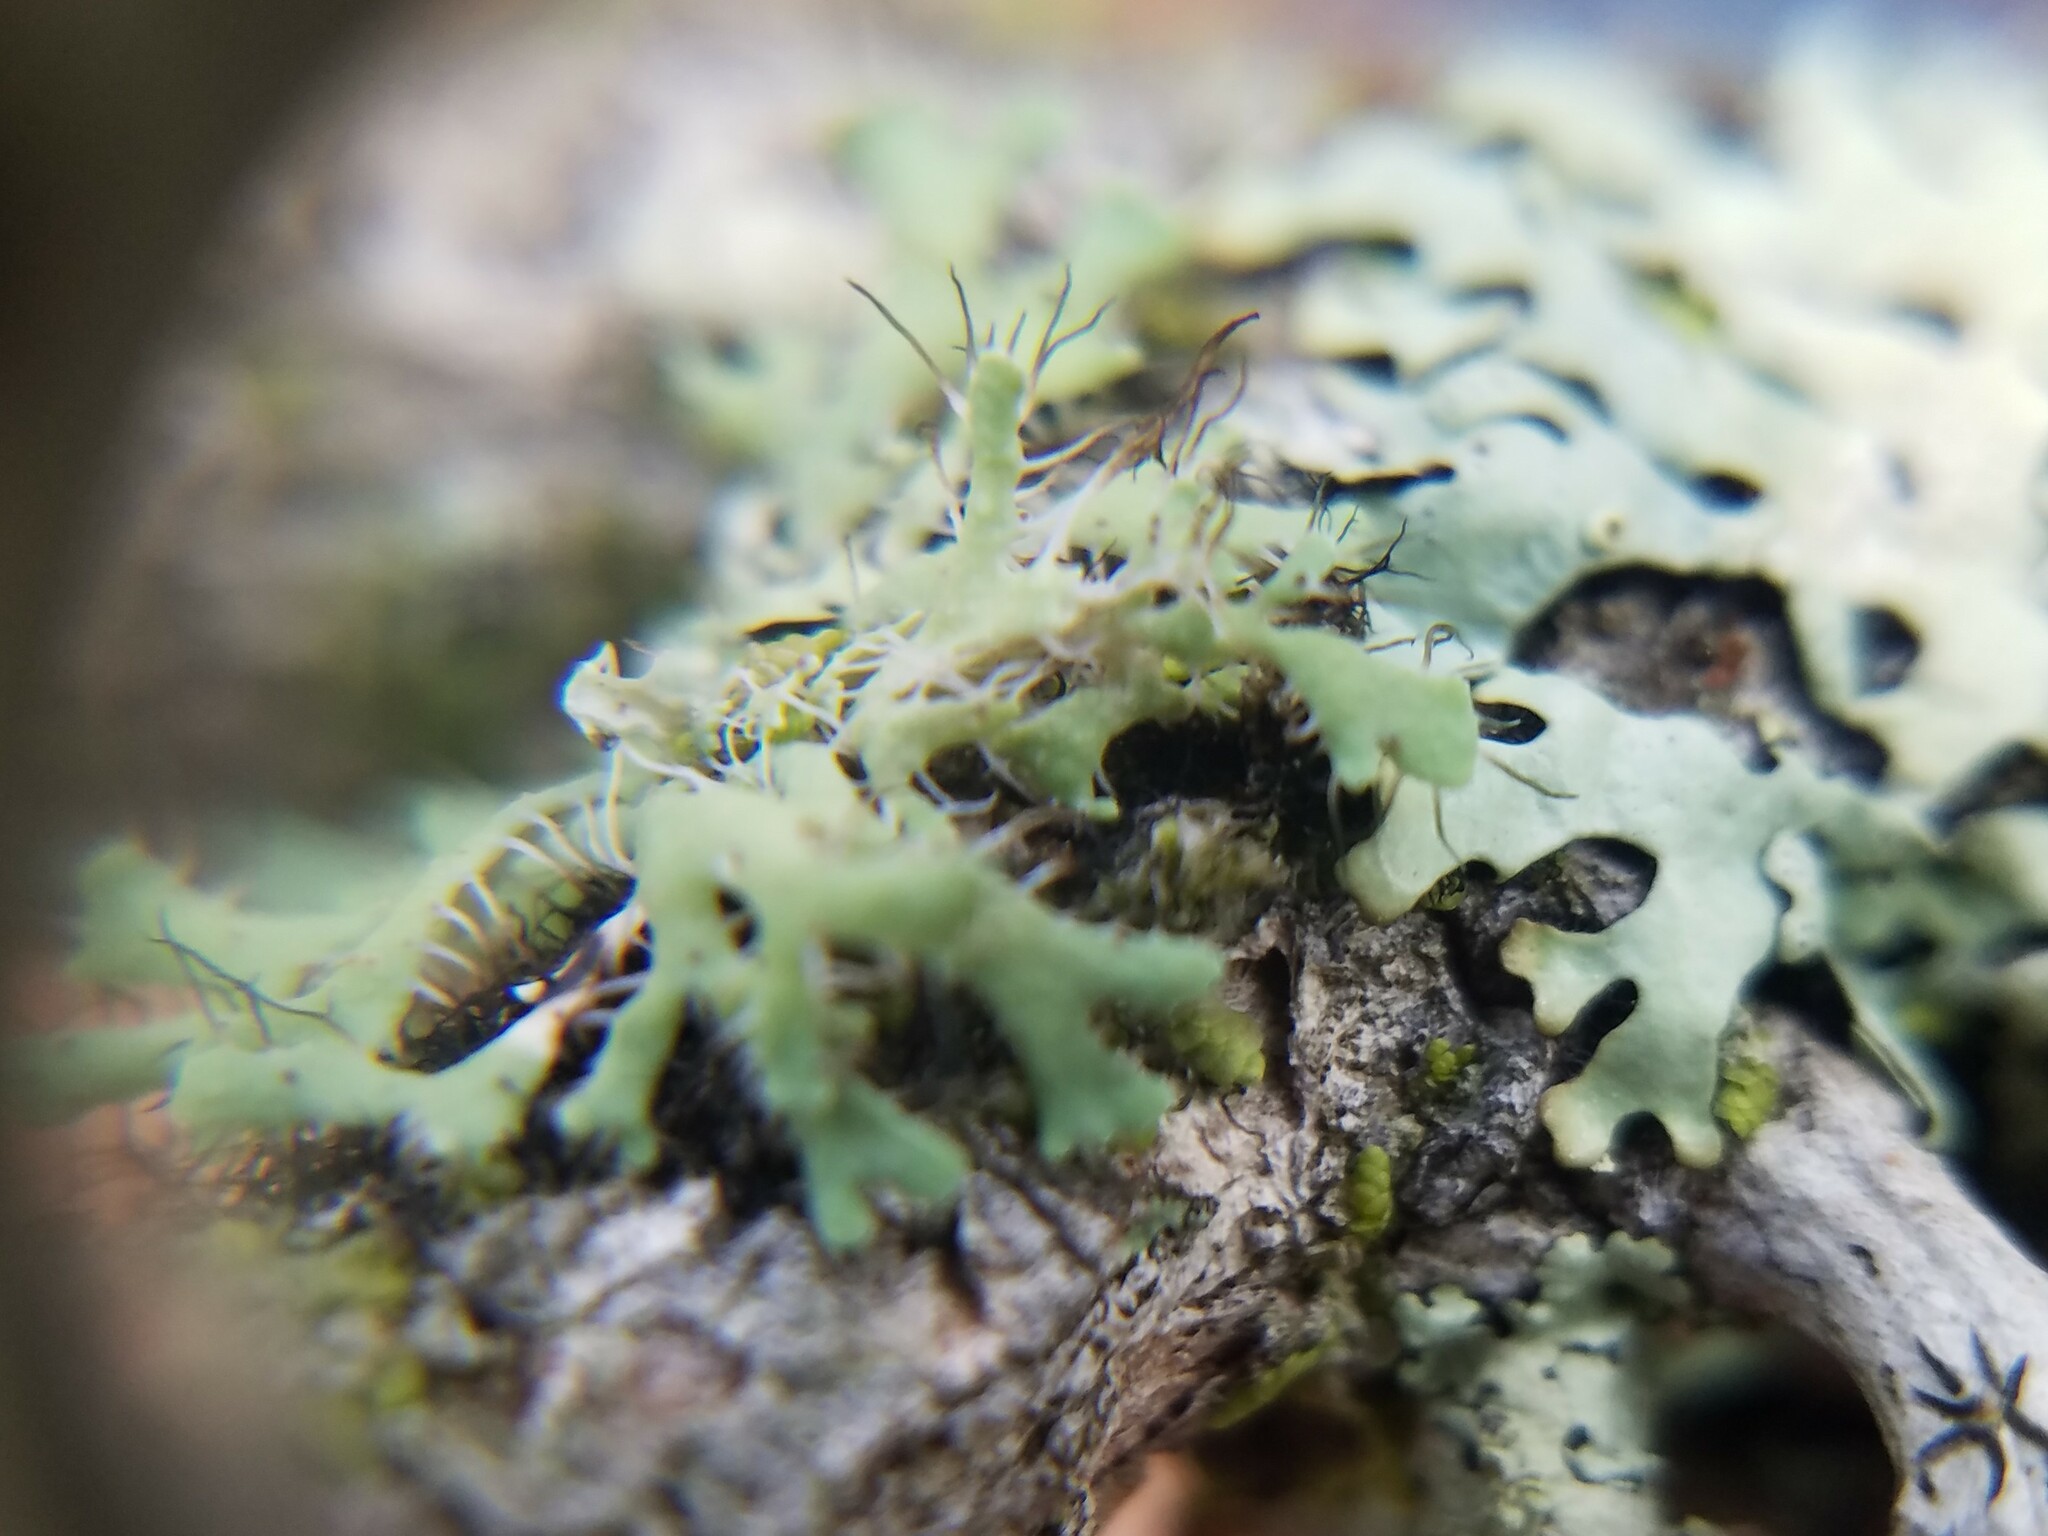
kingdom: Fungi
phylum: Ascomycota
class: Lecanoromycetes
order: Caliciales
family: Physciaceae
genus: Heterodermia
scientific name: Heterodermia echinata
